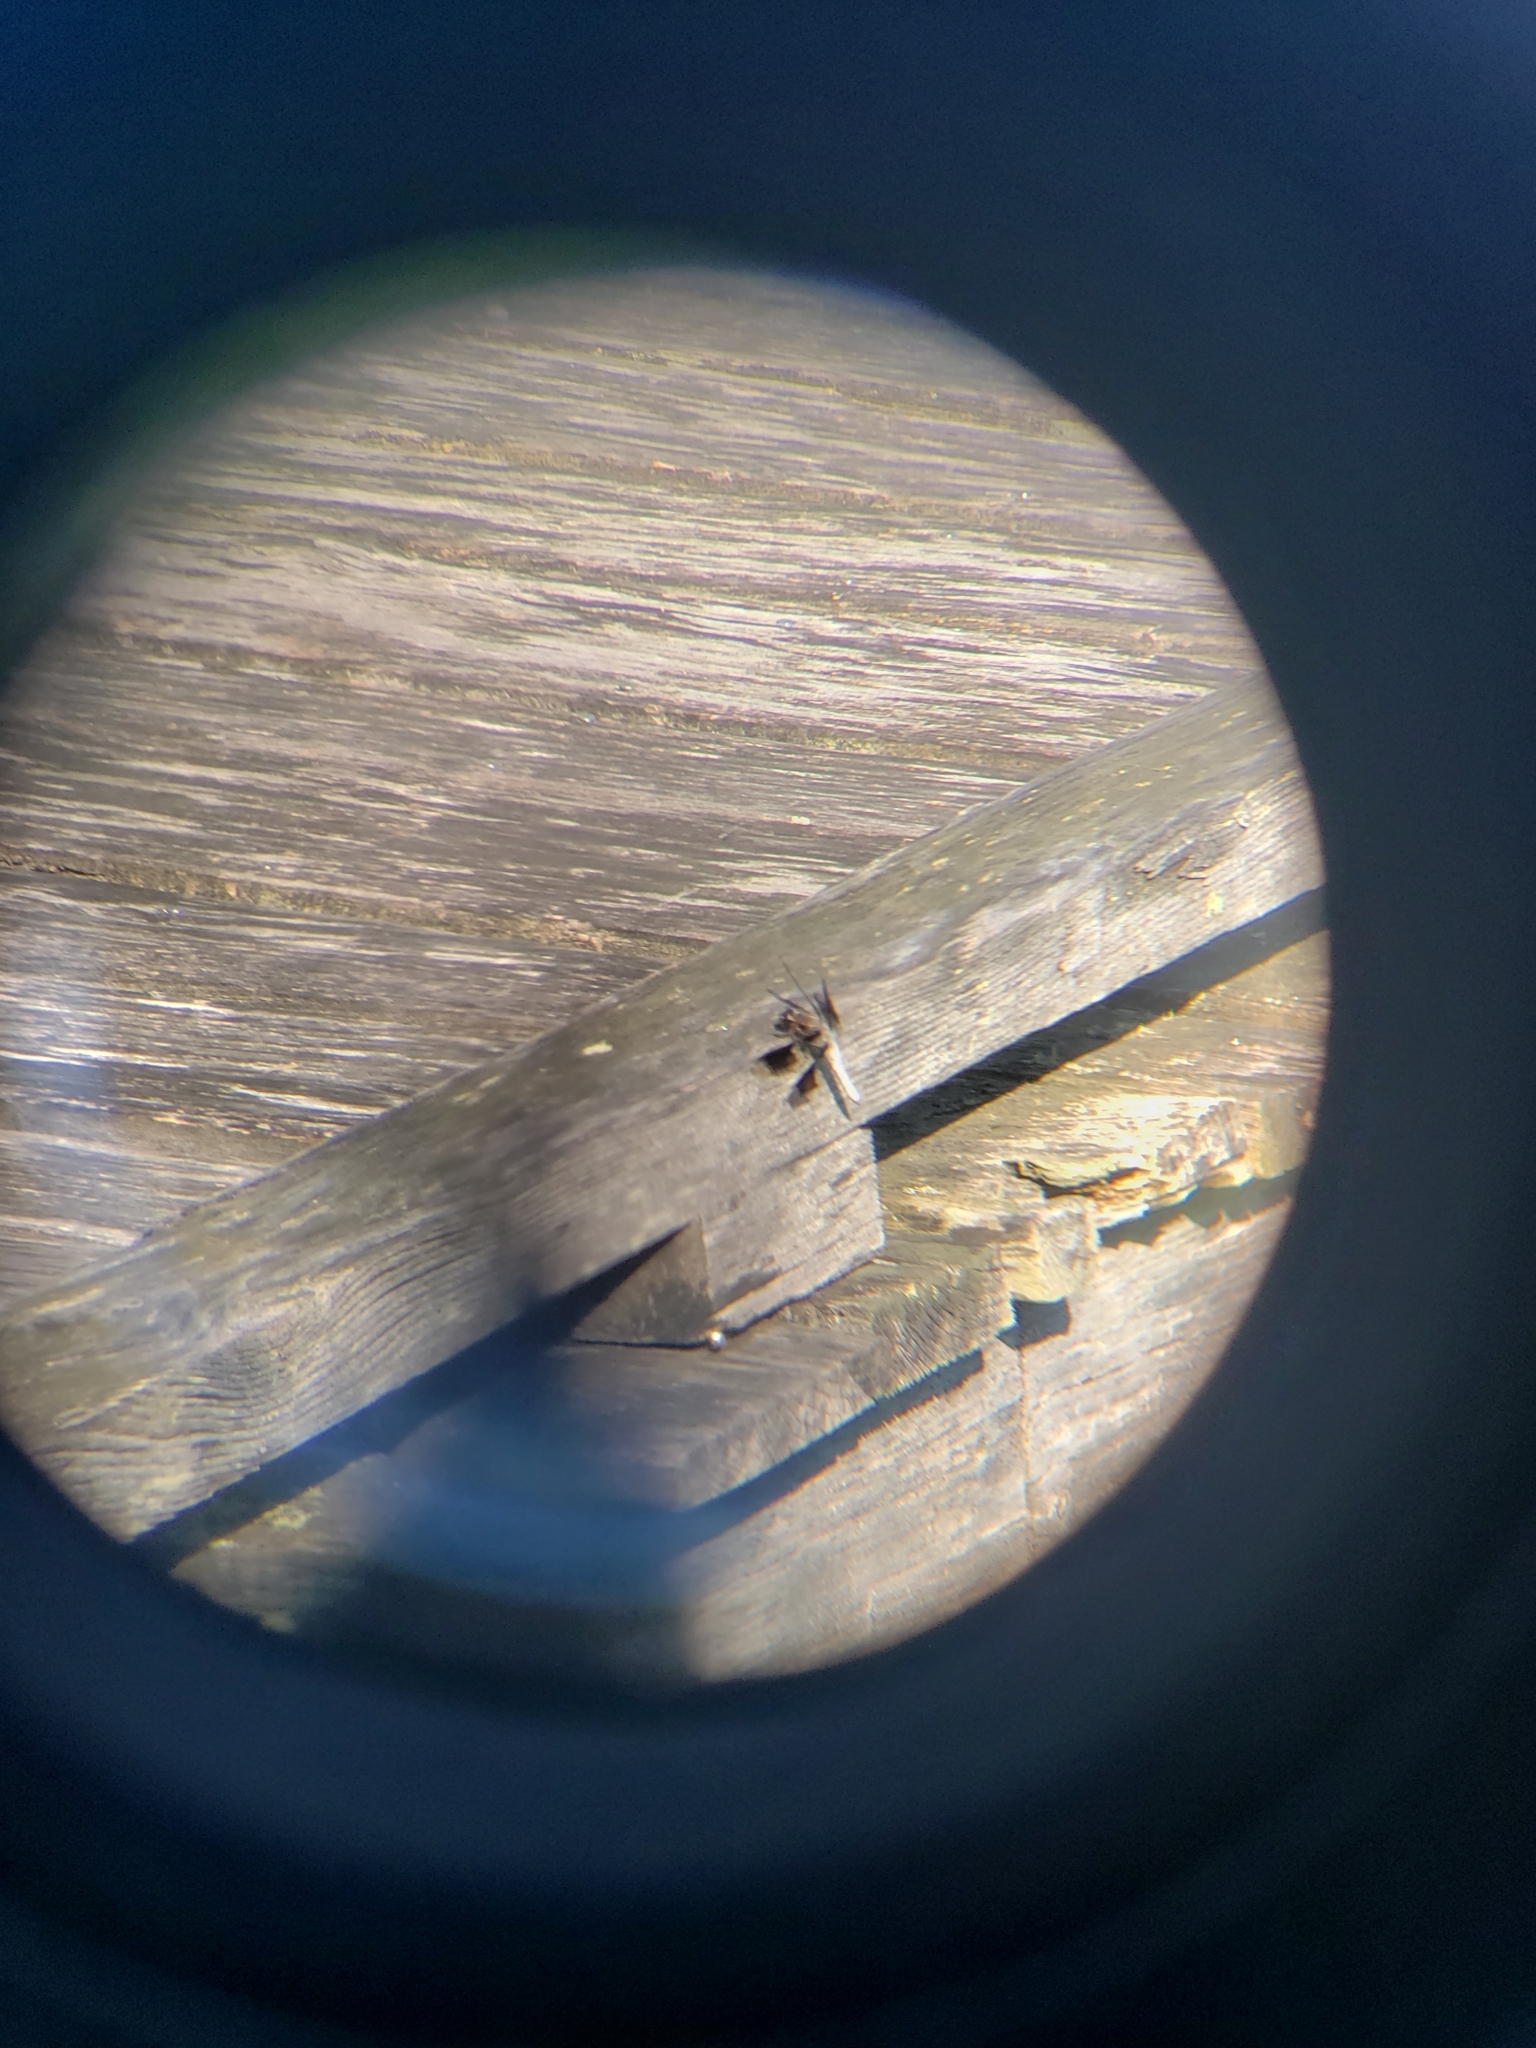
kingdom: Animalia
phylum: Arthropoda
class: Insecta
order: Odonata
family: Libellulidae
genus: Plathemis
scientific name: Plathemis lydia
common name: Common whitetail
